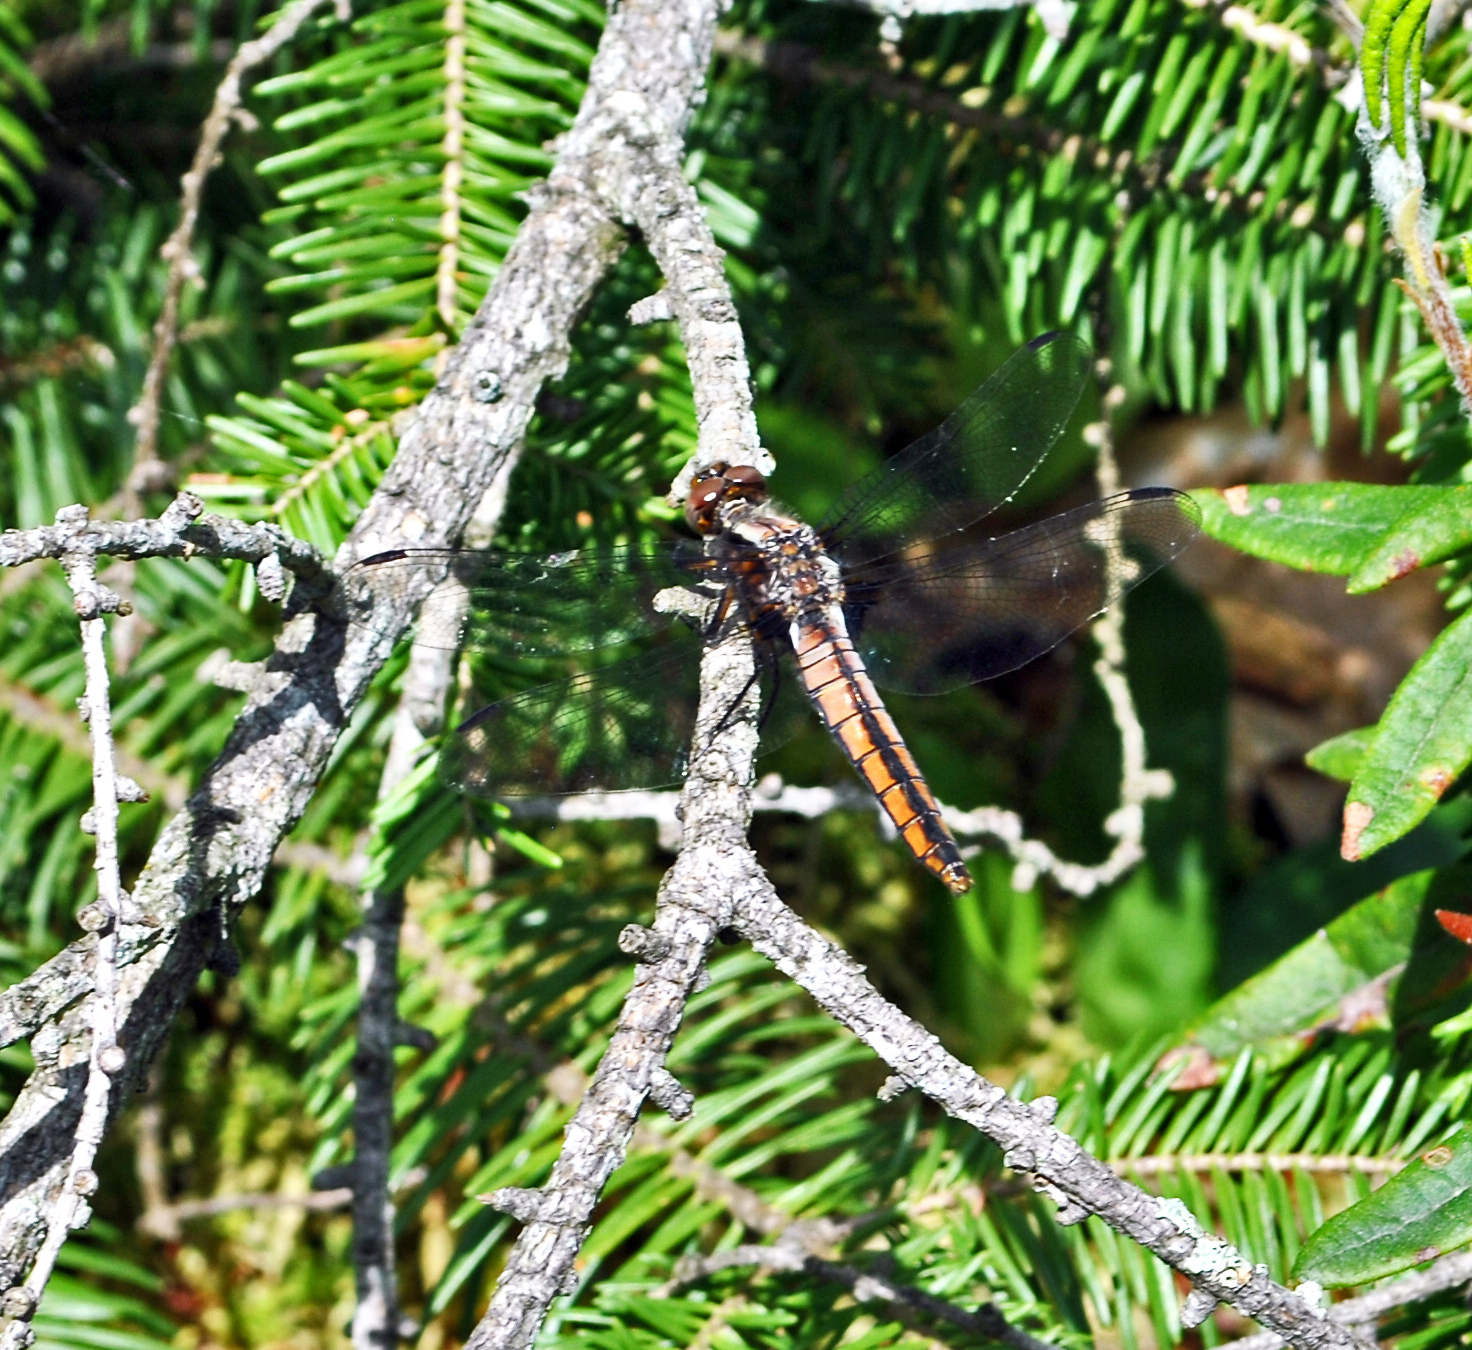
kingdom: Animalia
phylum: Arthropoda
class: Insecta
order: Odonata
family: Libellulidae
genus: Ladona
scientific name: Ladona julia
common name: Chalk-fronted corporal
